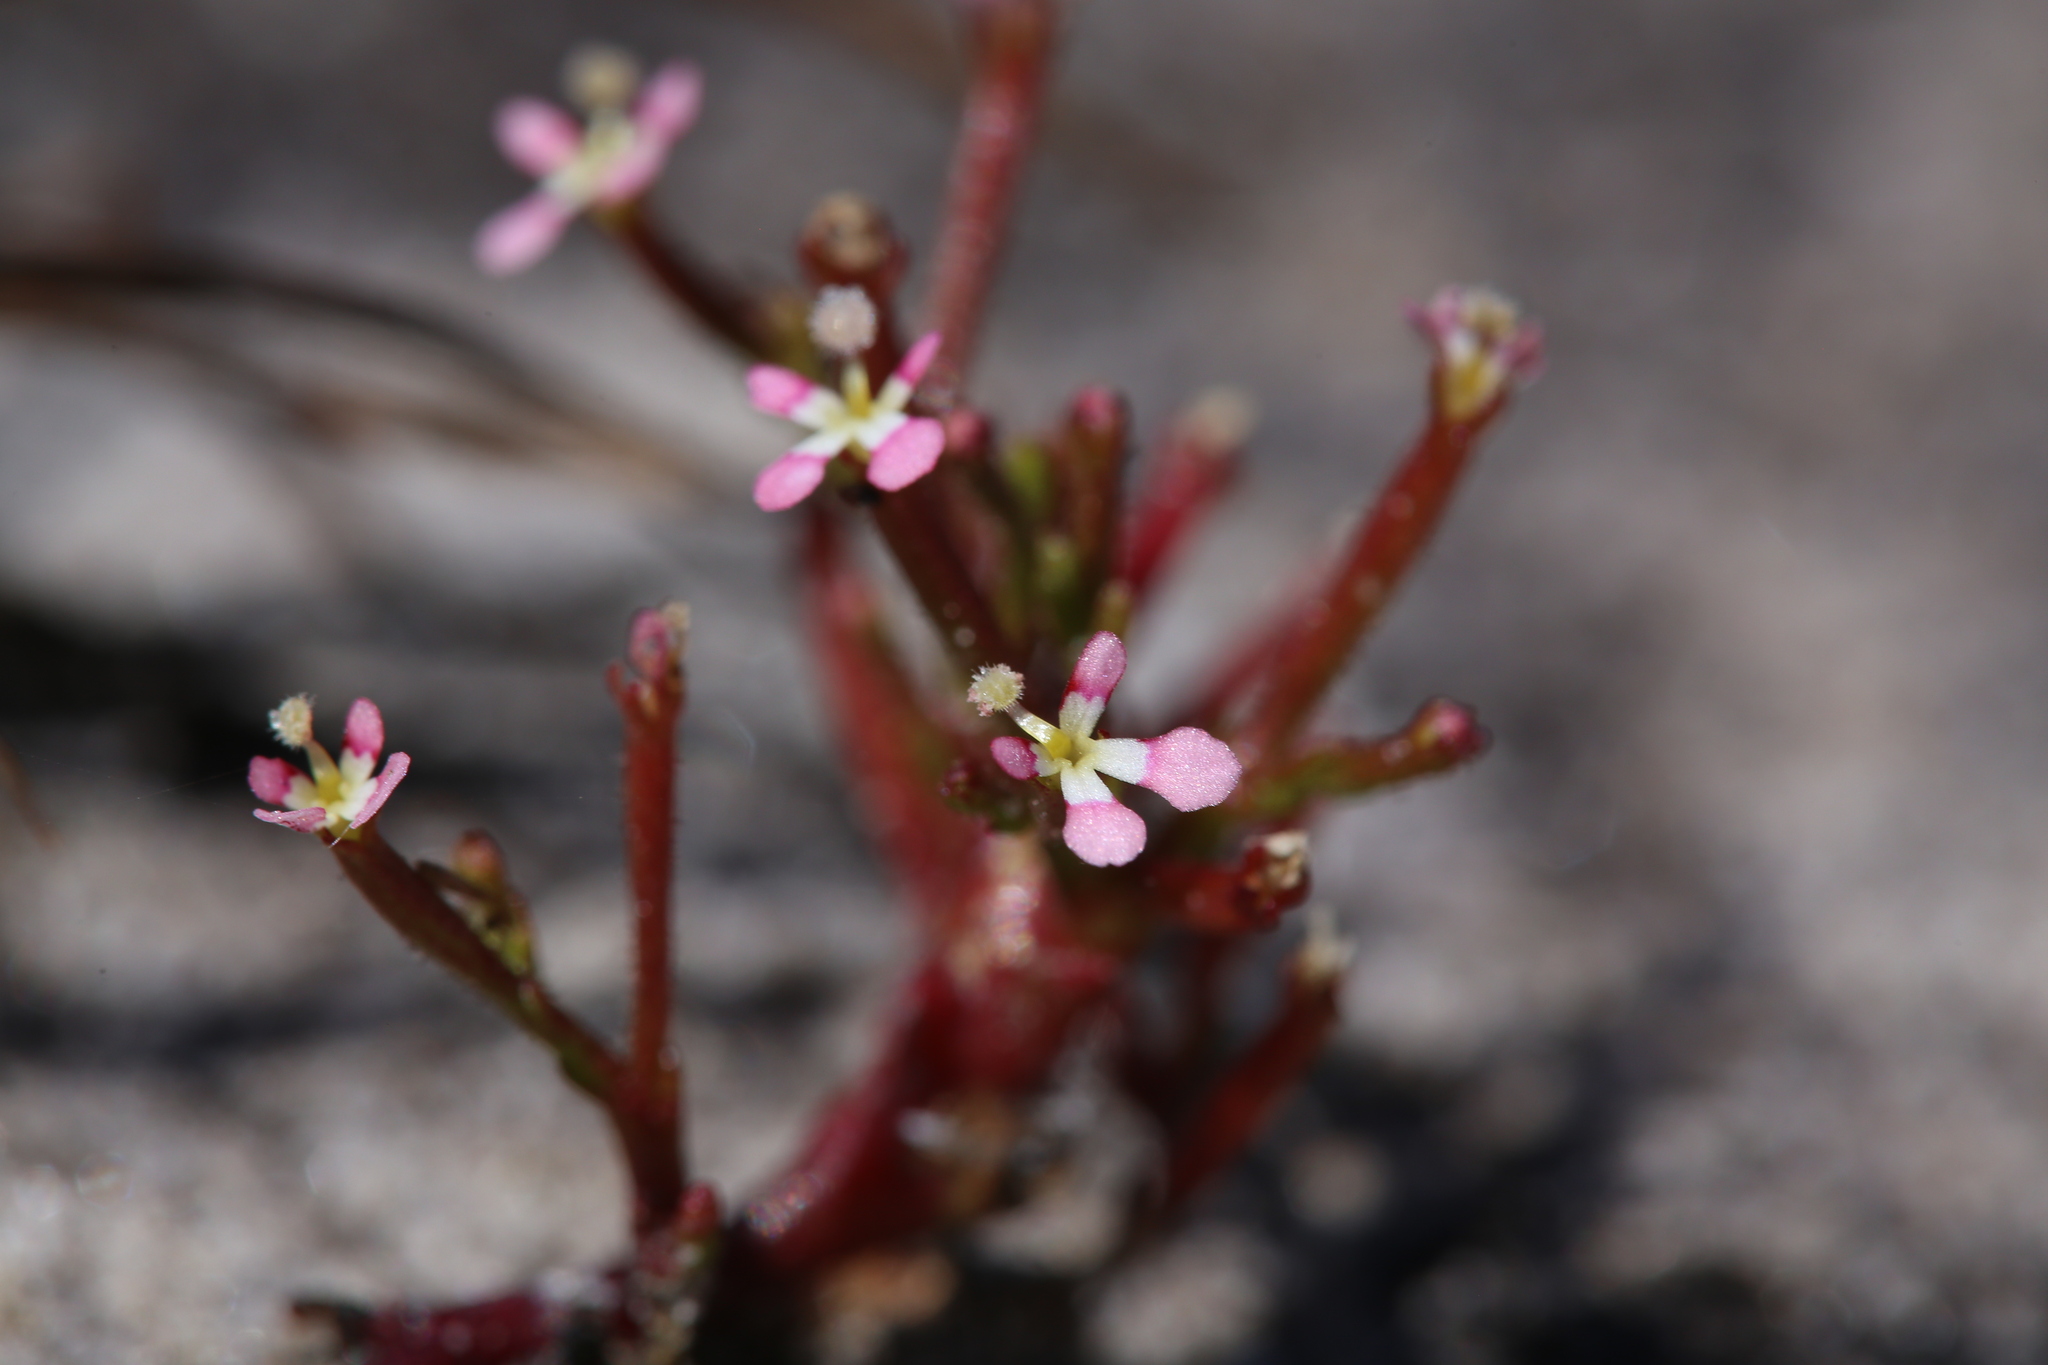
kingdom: Plantae
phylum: Tracheophyta
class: Magnoliopsida
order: Asterales
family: Stylidiaceae
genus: Stylidium
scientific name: Stylidium inundatum
